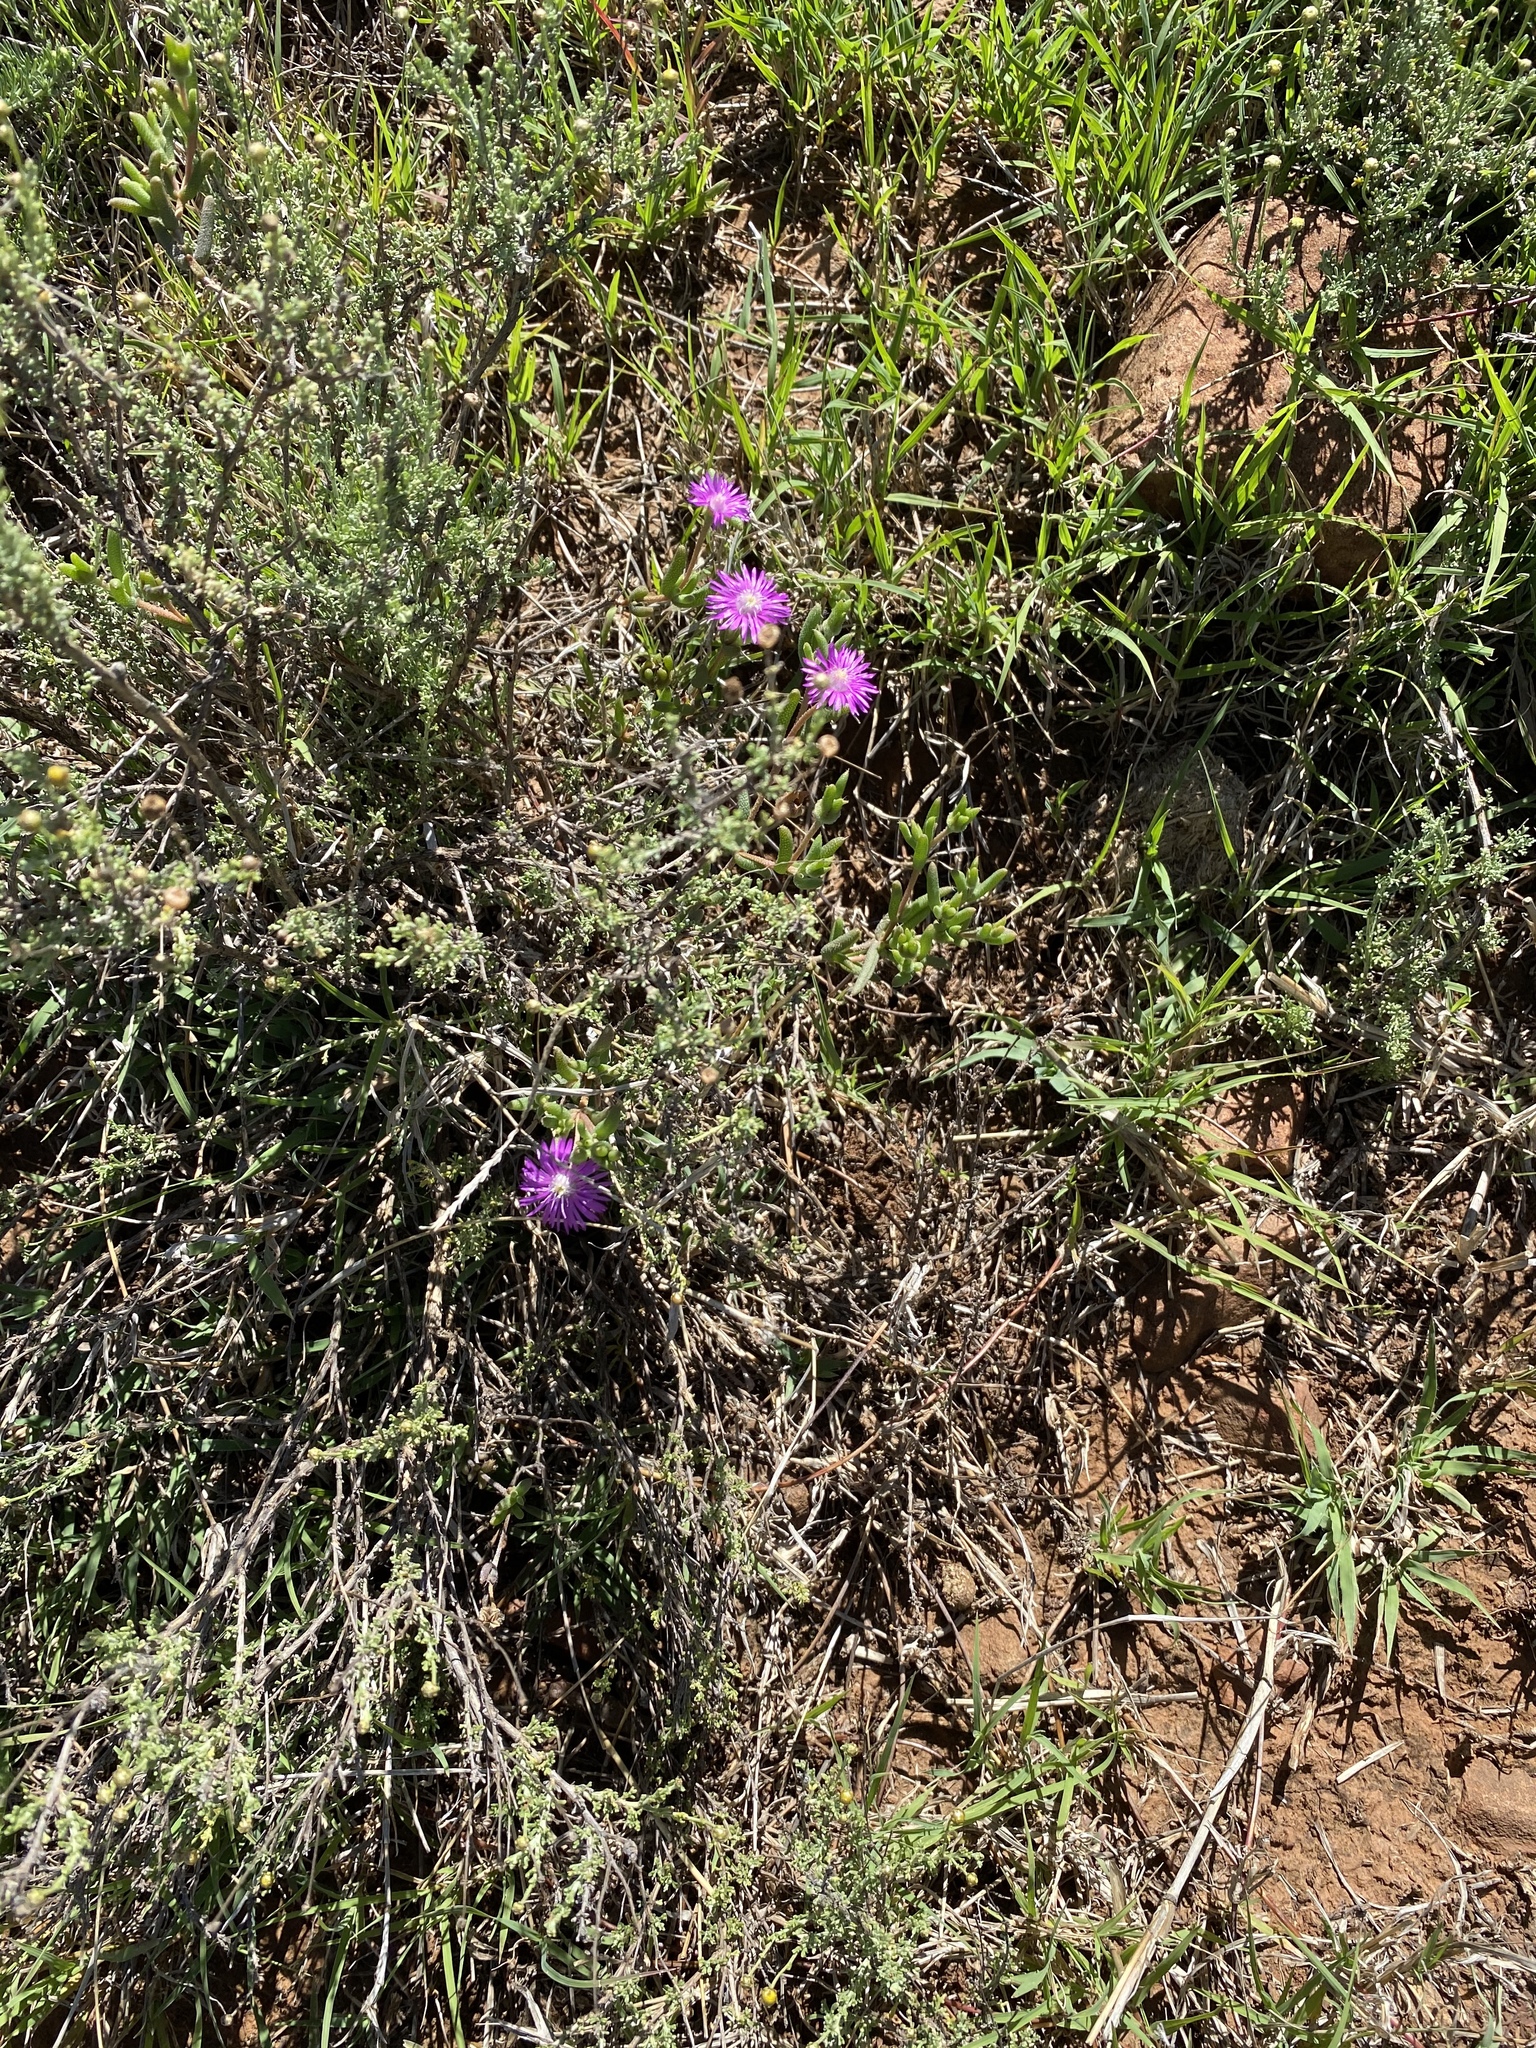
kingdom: Plantae
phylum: Tracheophyta
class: Magnoliopsida
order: Caryophyllales
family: Aizoaceae
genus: Trichodiadema
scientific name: Trichodiadema pomeridianum
